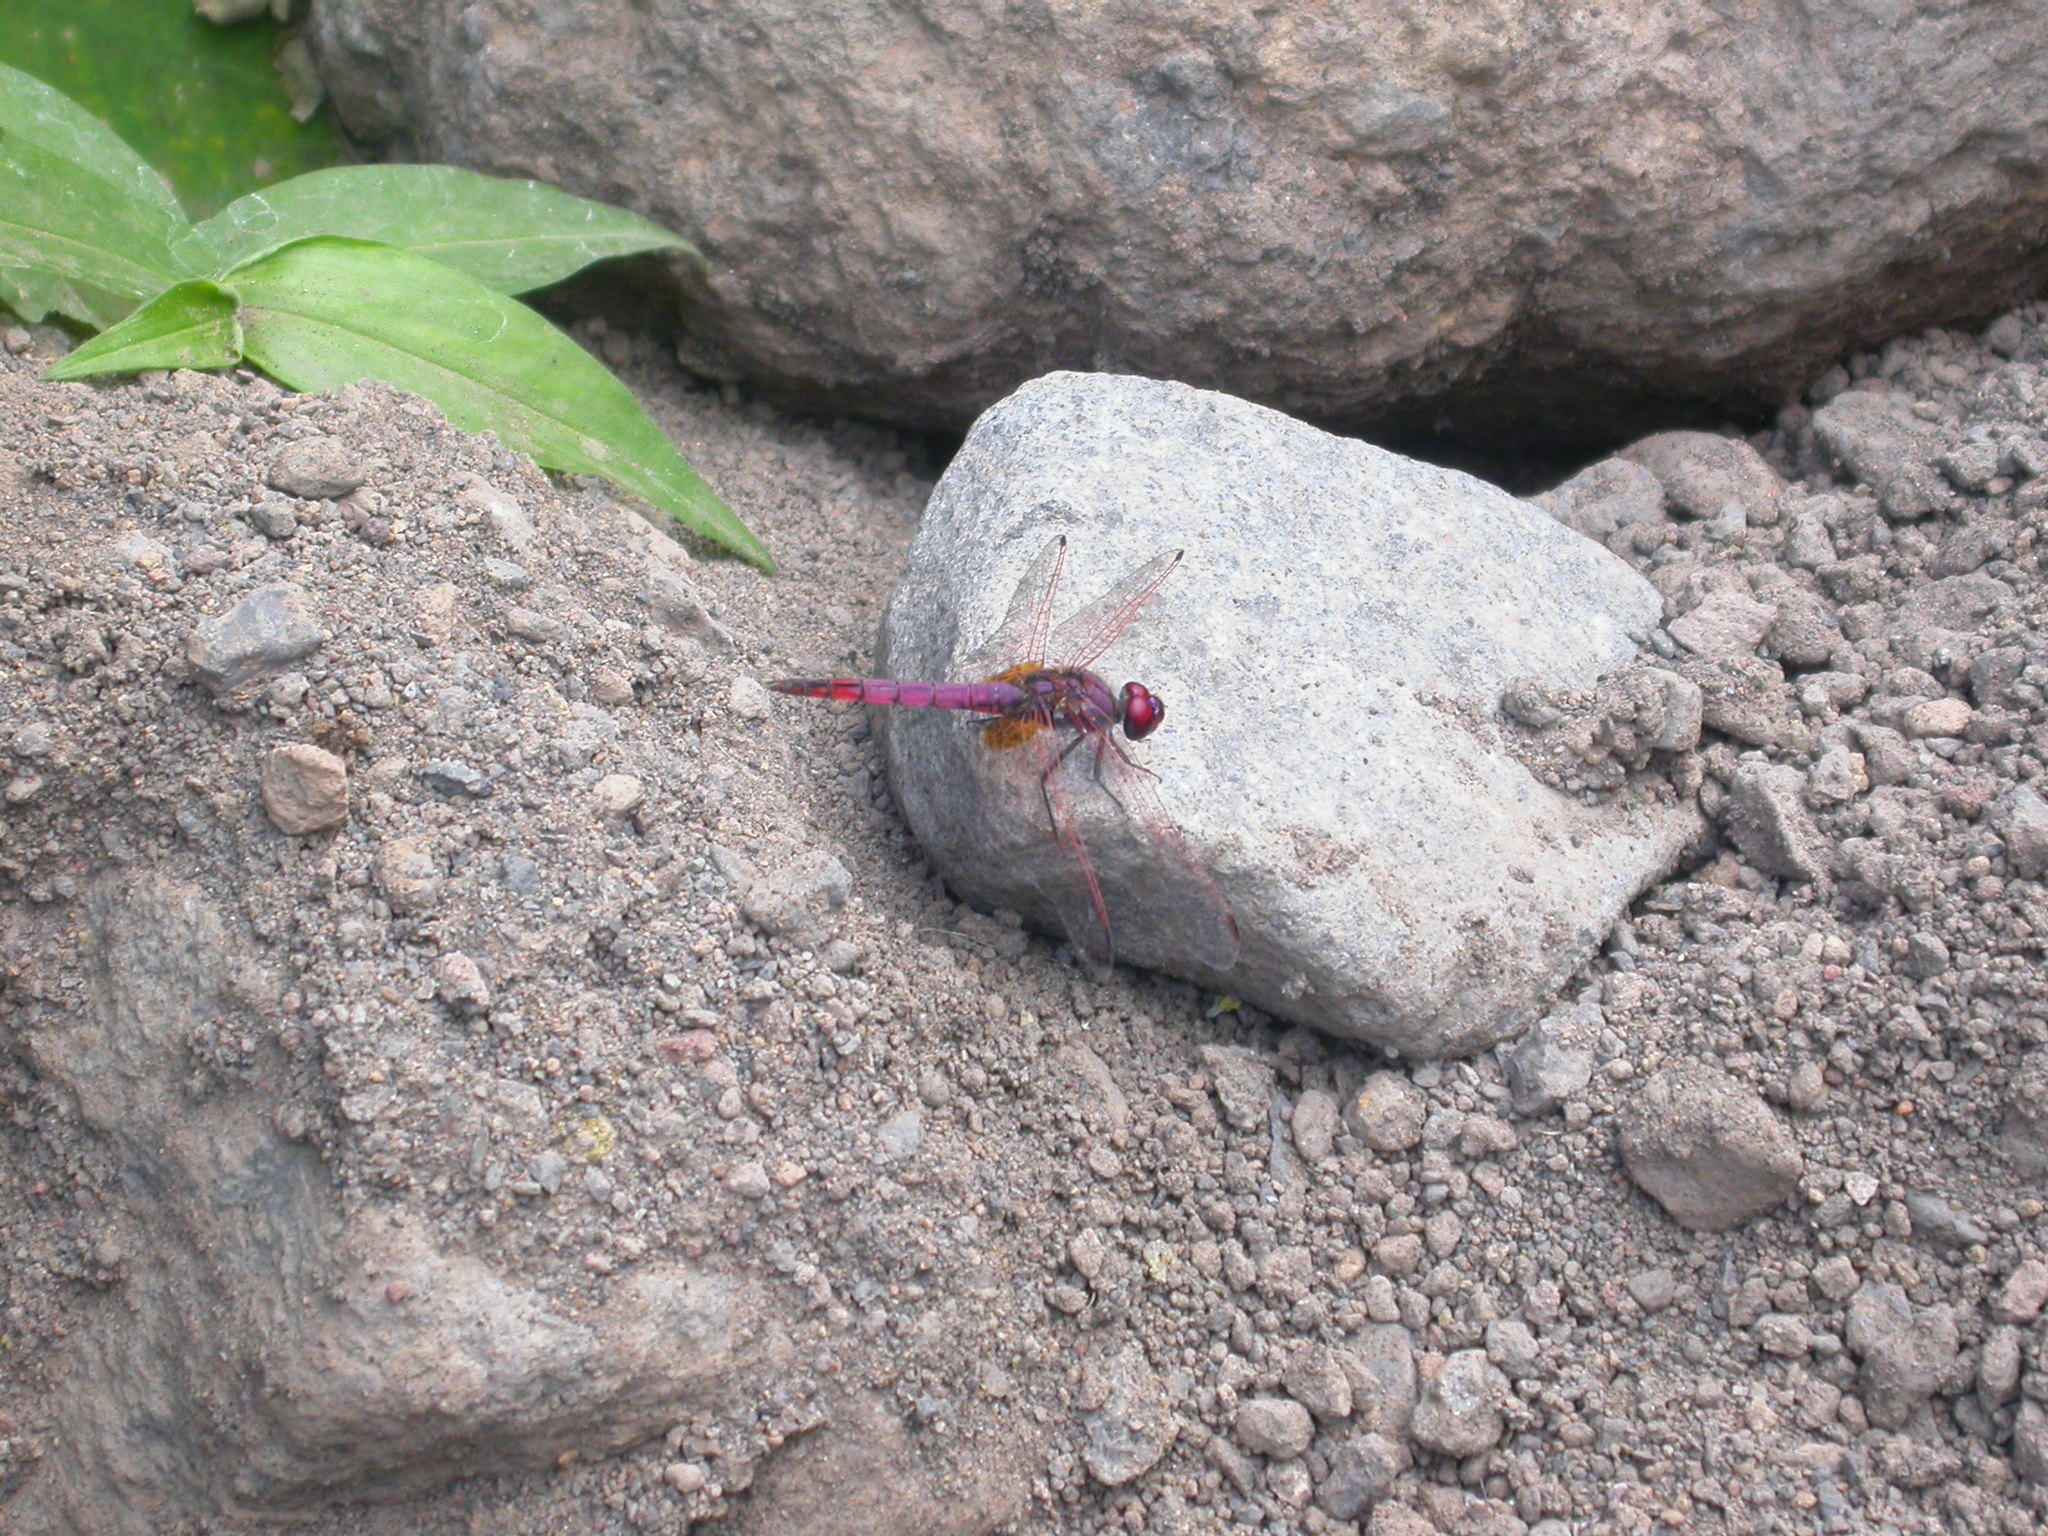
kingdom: Animalia
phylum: Arthropoda
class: Insecta
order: Odonata
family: Libellulidae
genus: Trithemis
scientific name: Trithemis annulata
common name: Violet dropwing
